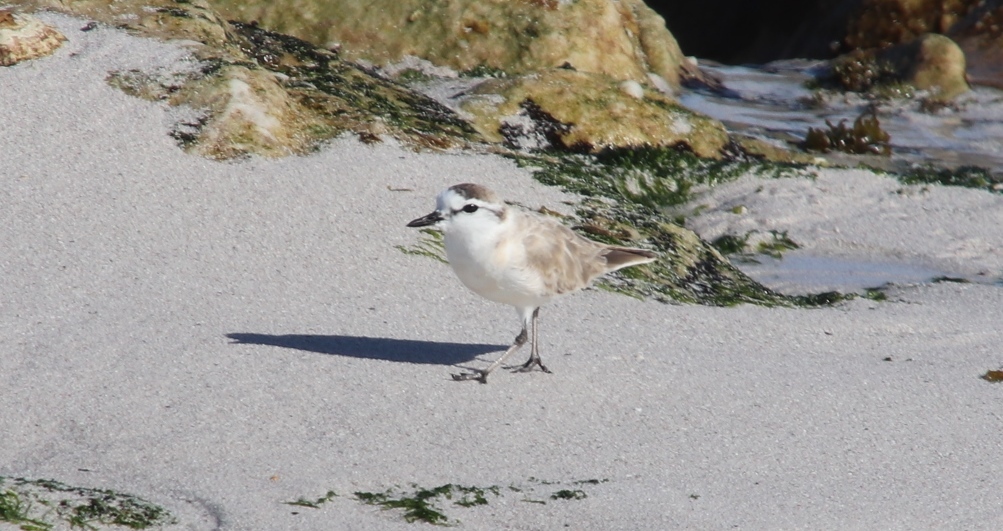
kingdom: Animalia
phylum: Chordata
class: Aves
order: Charadriiformes
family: Charadriidae
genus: Anarhynchus
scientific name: Anarhynchus
